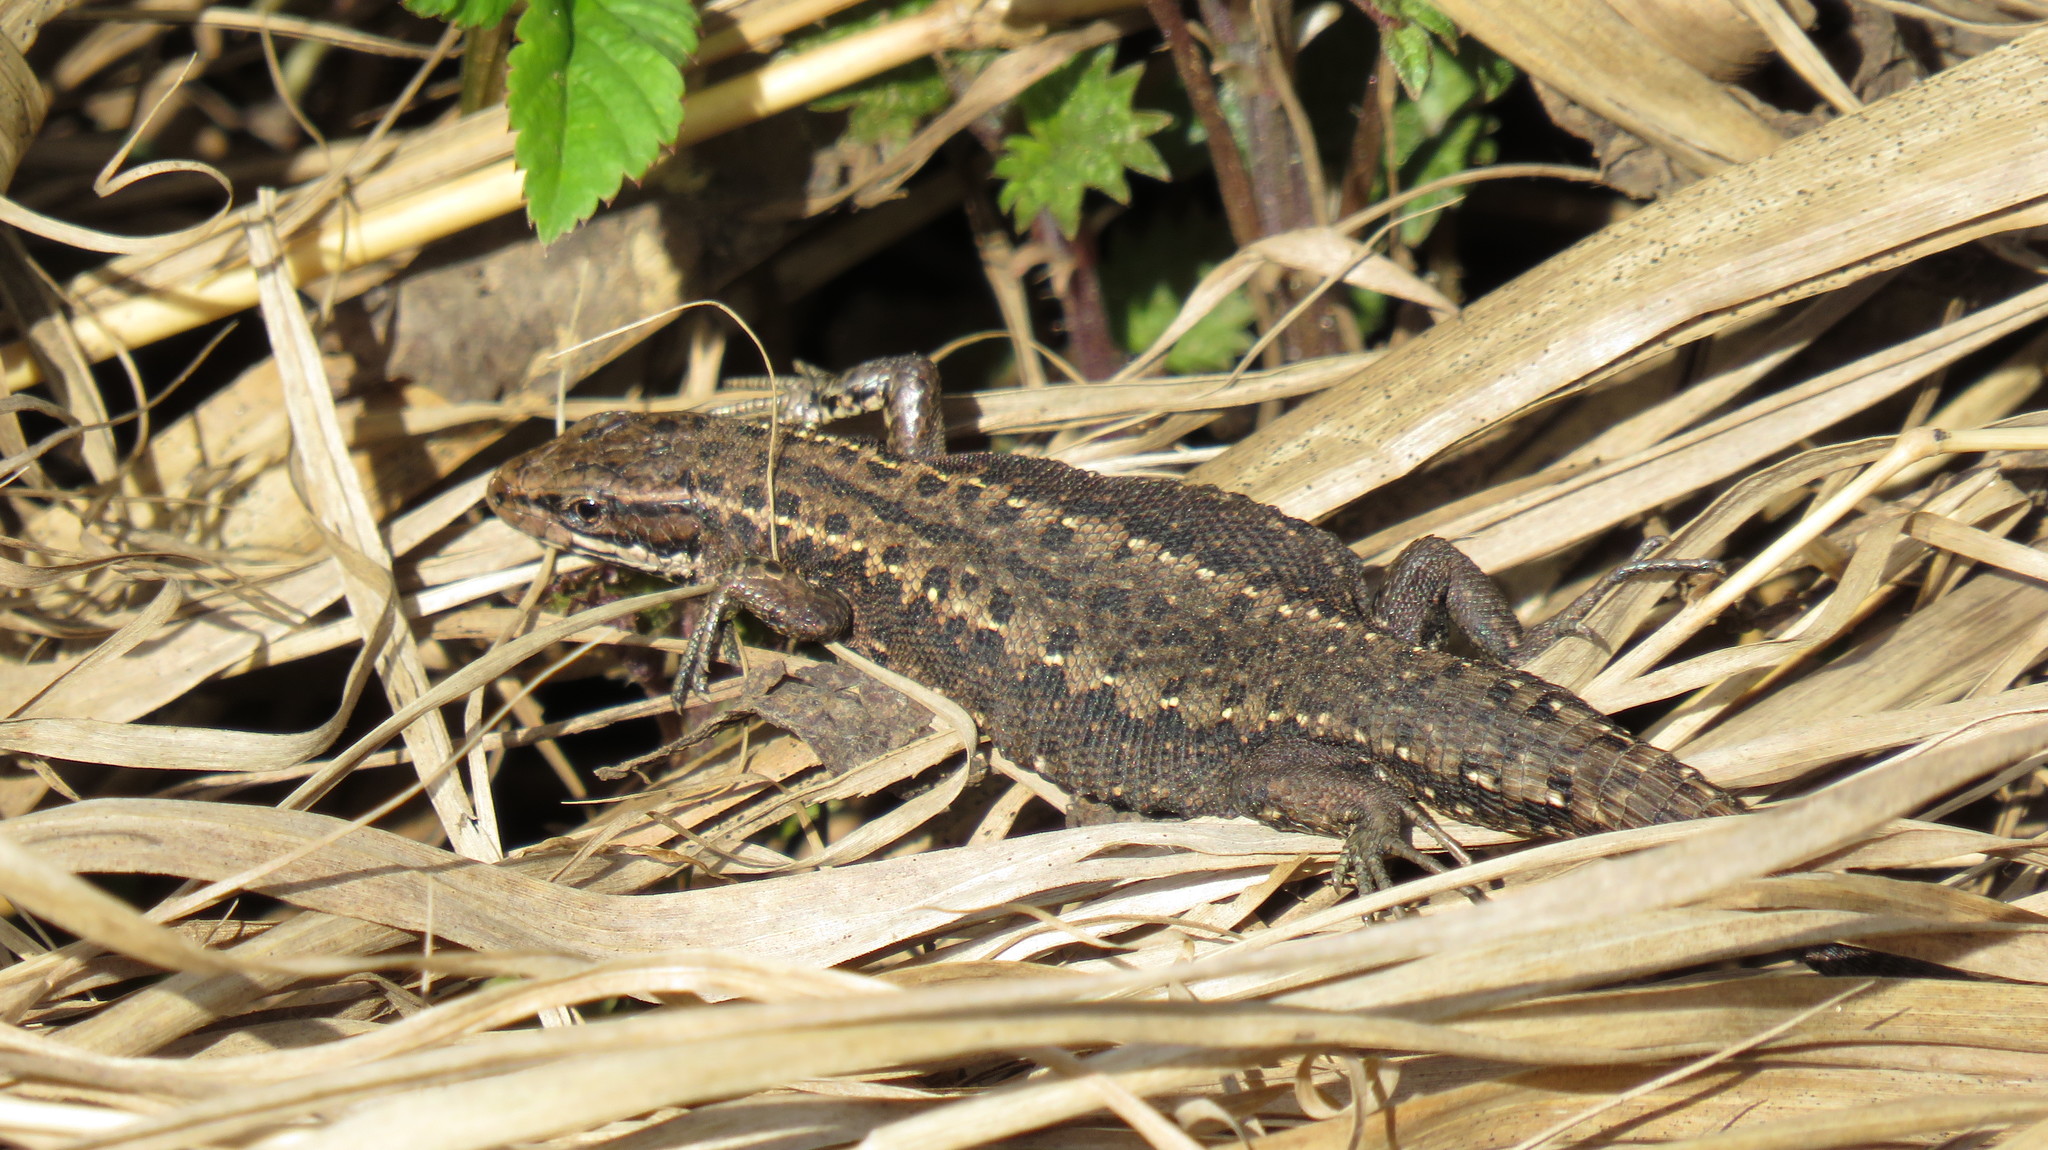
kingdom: Animalia
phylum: Chordata
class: Squamata
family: Lacertidae
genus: Zootoca
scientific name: Zootoca vivipara
